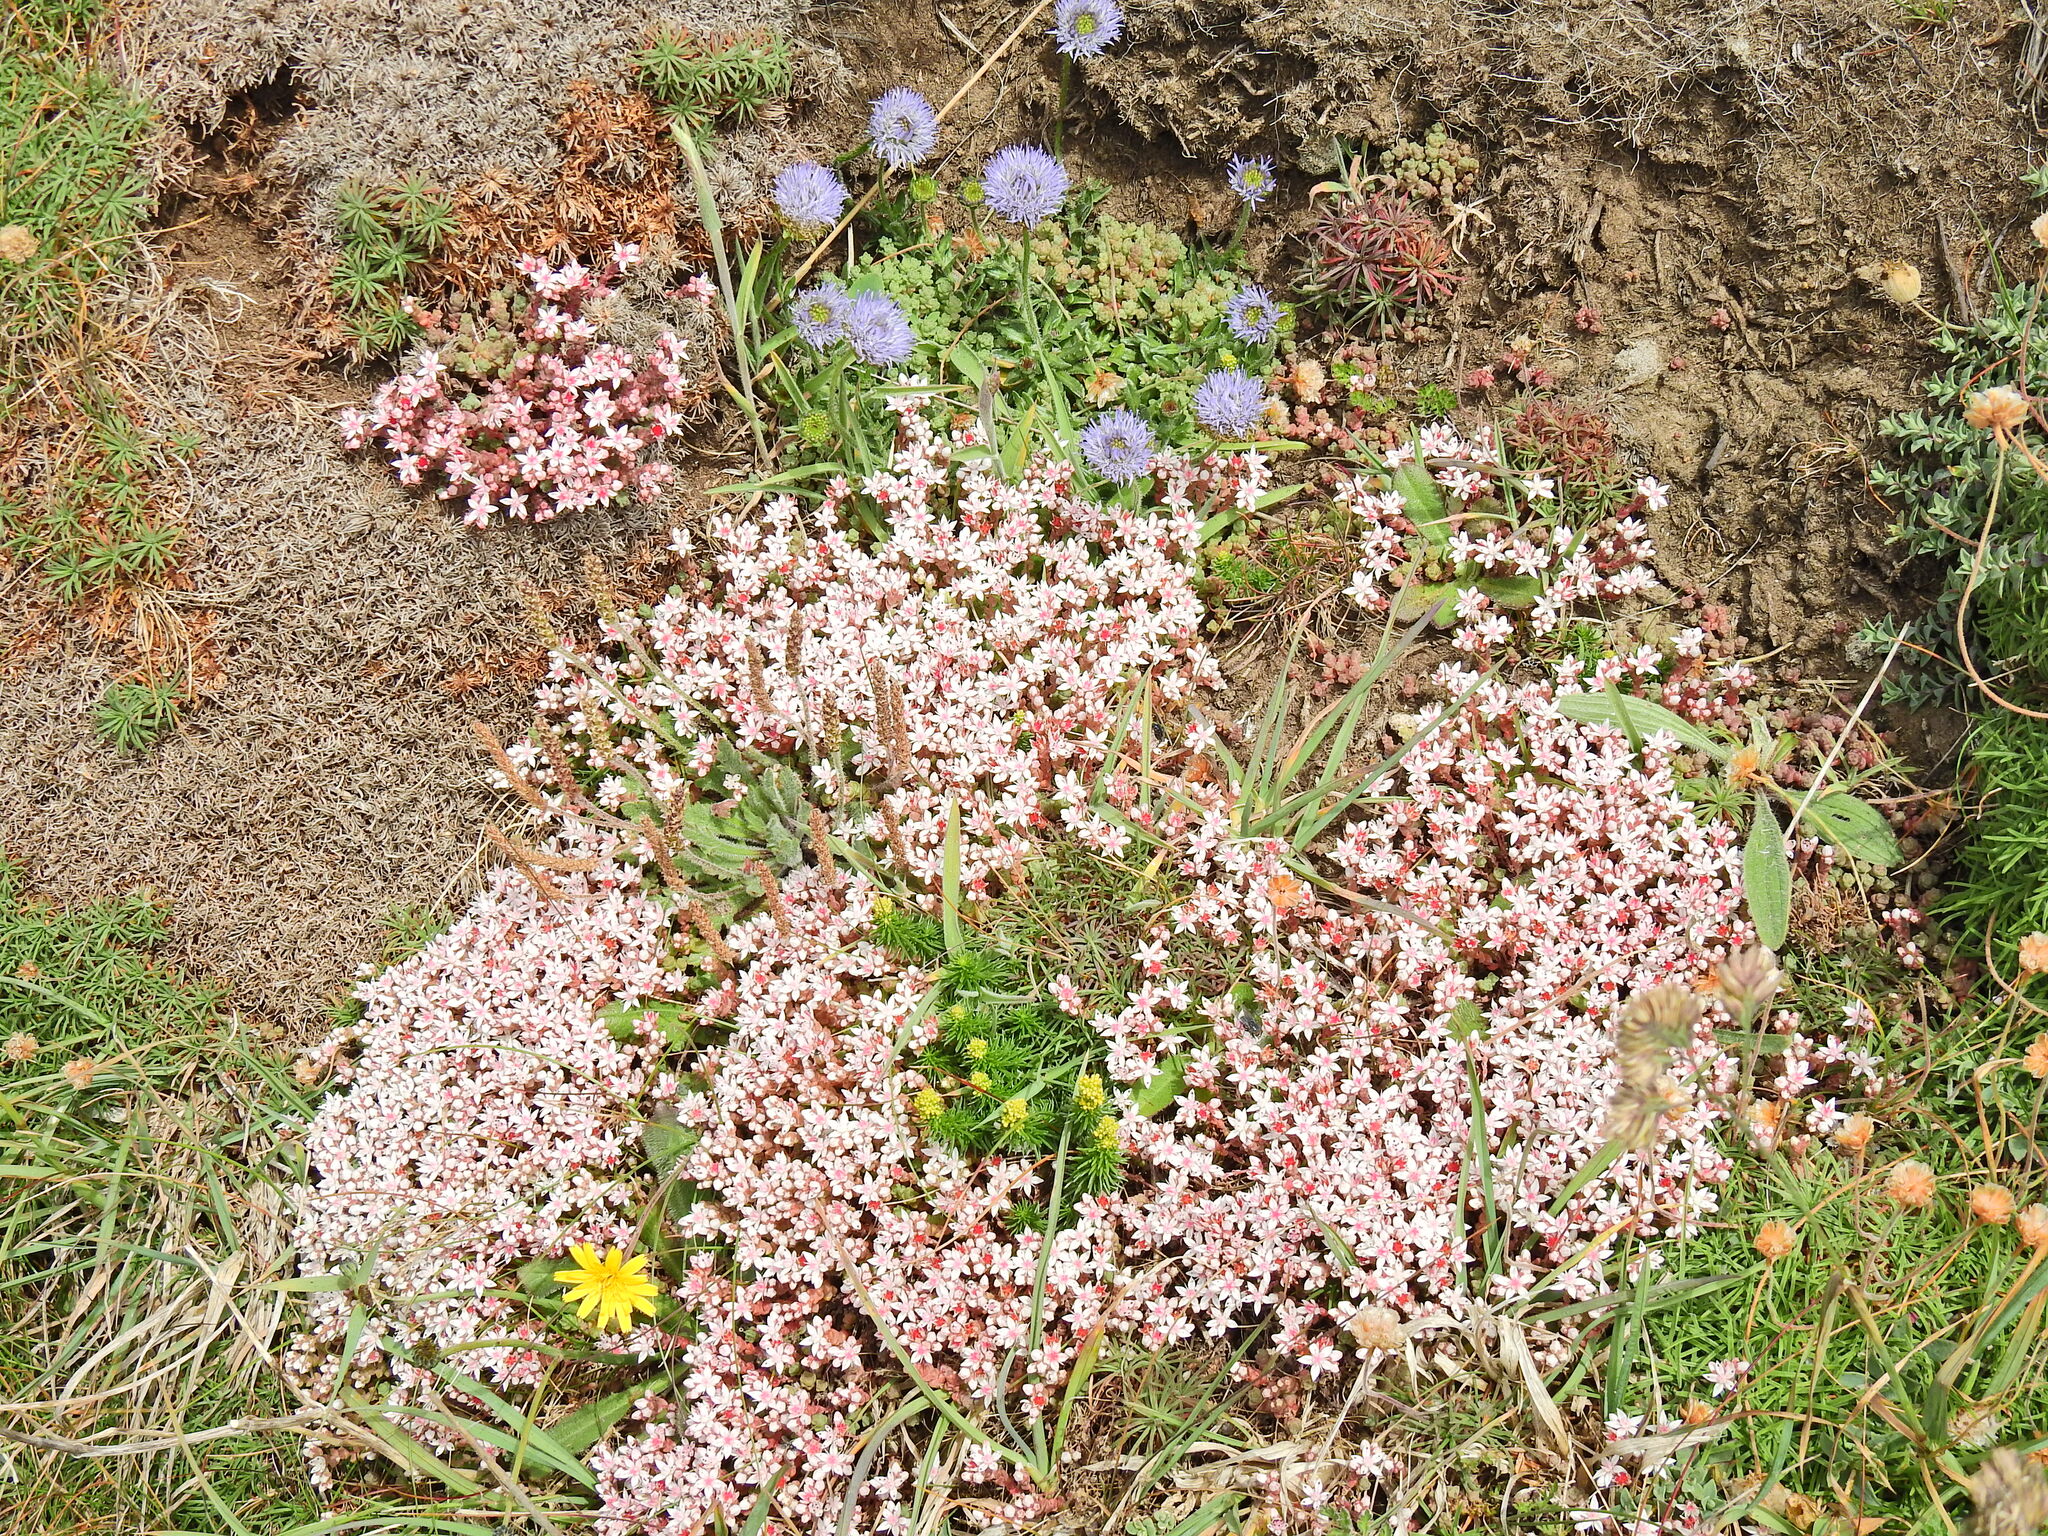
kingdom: Plantae
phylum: Tracheophyta
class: Magnoliopsida
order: Saxifragales
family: Crassulaceae
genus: Sedum
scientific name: Sedum anglicum
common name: English stonecrop
